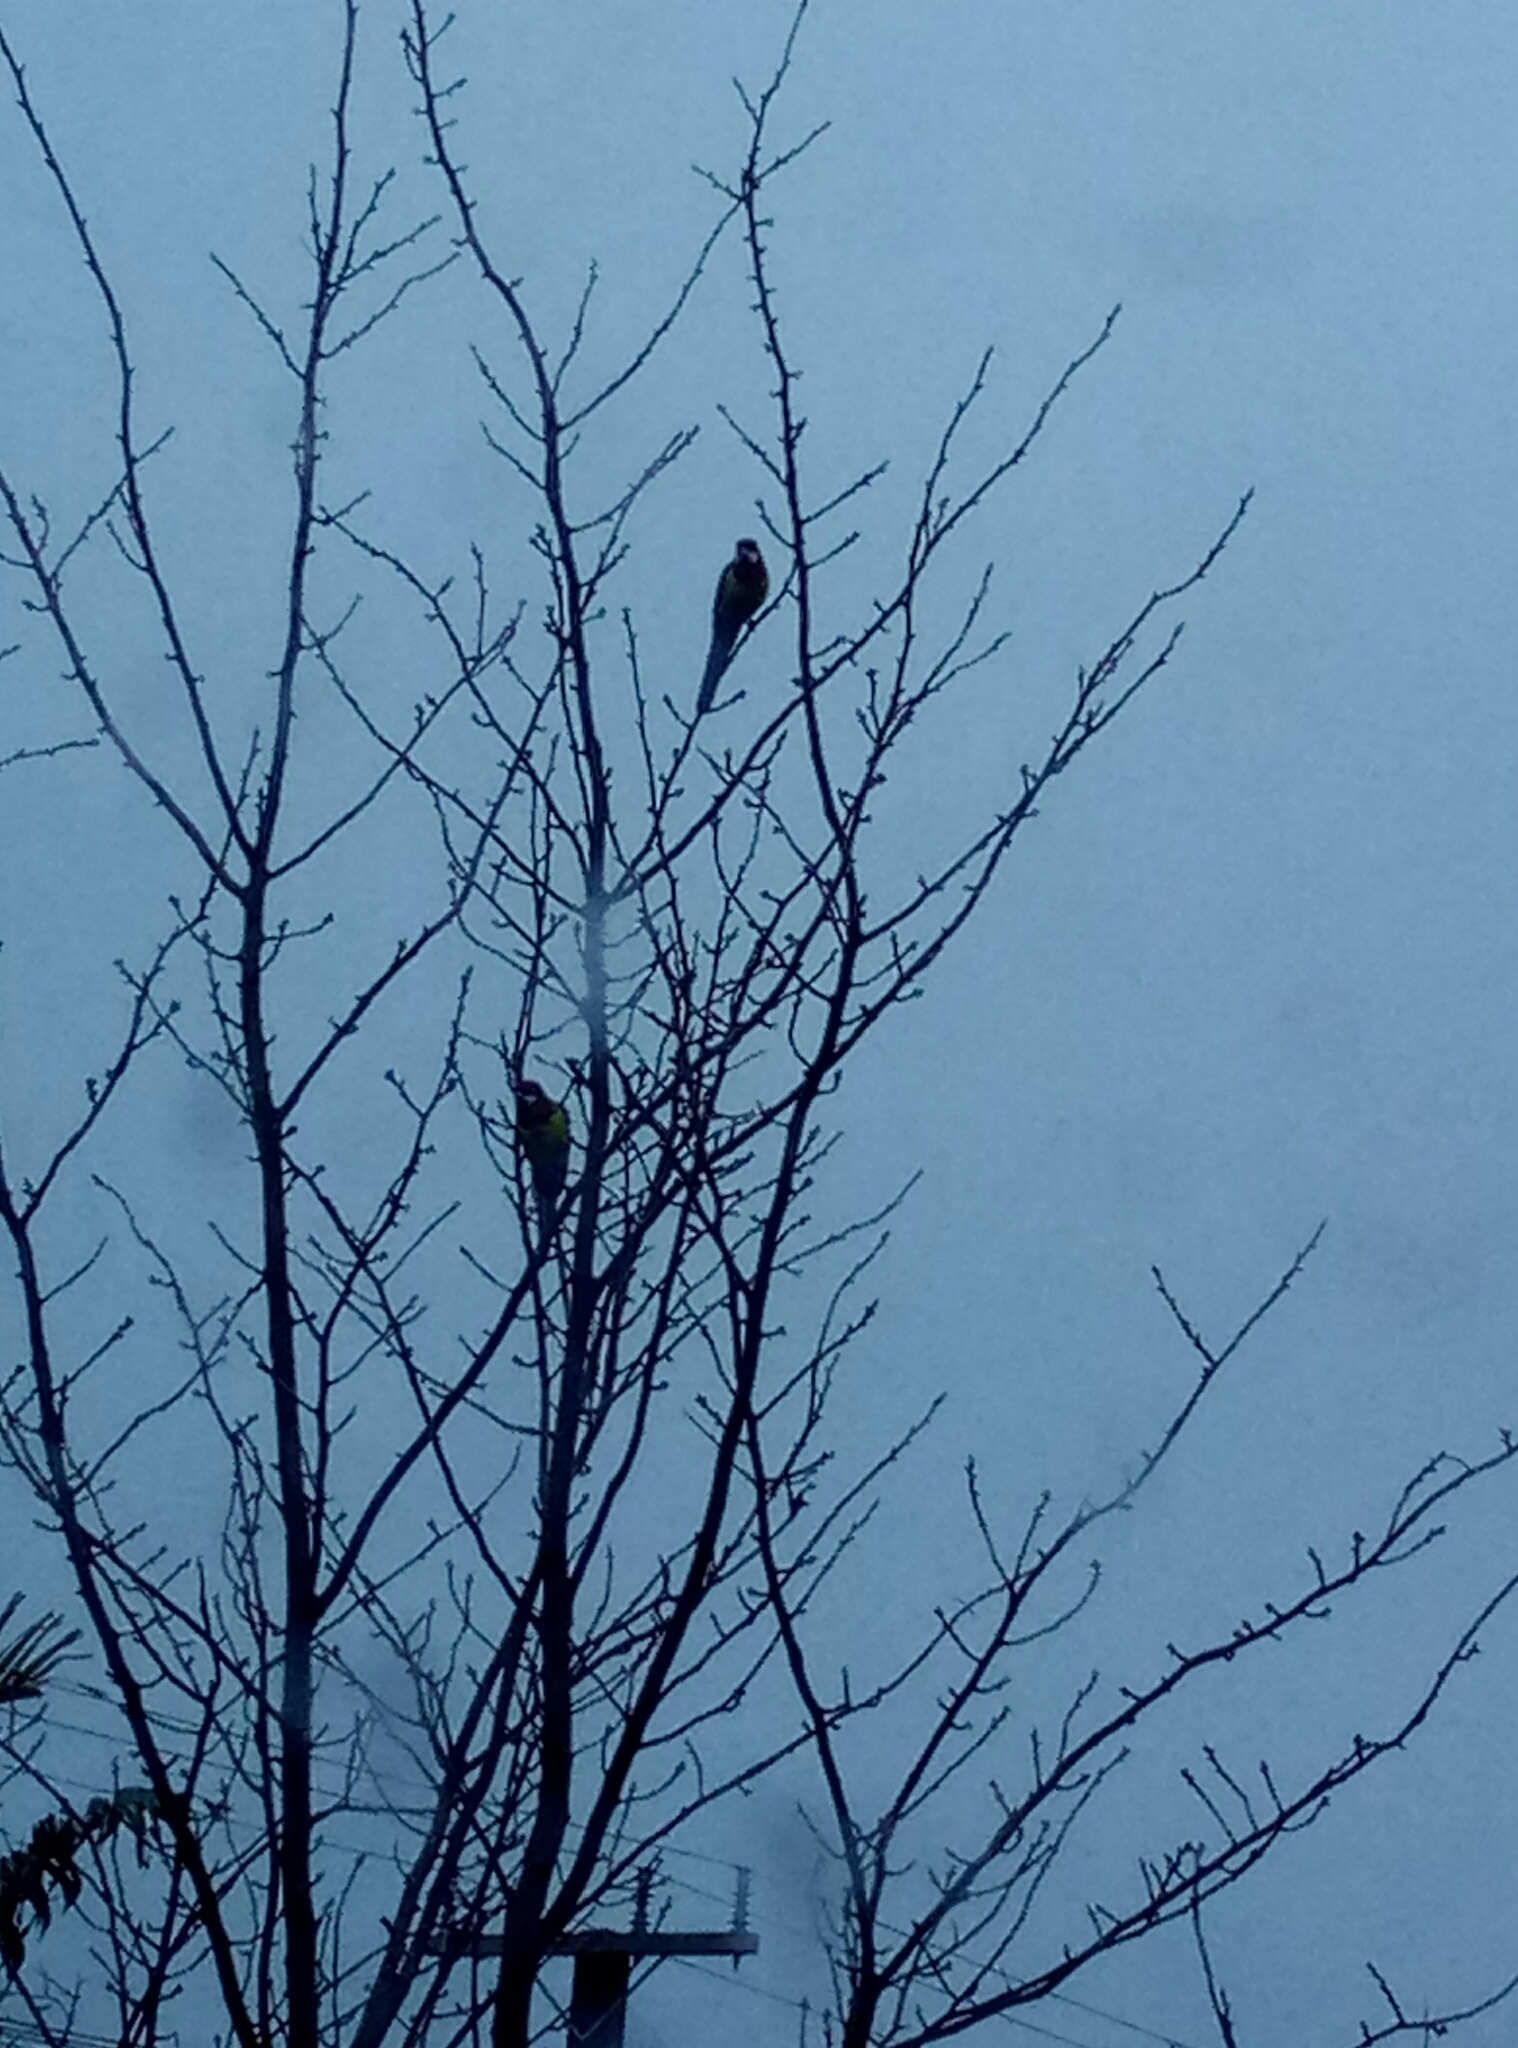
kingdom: Animalia
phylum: Chordata
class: Aves
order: Psittaciformes
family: Psittacidae
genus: Platycercus
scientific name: Platycercus eximius
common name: Eastern rosella
